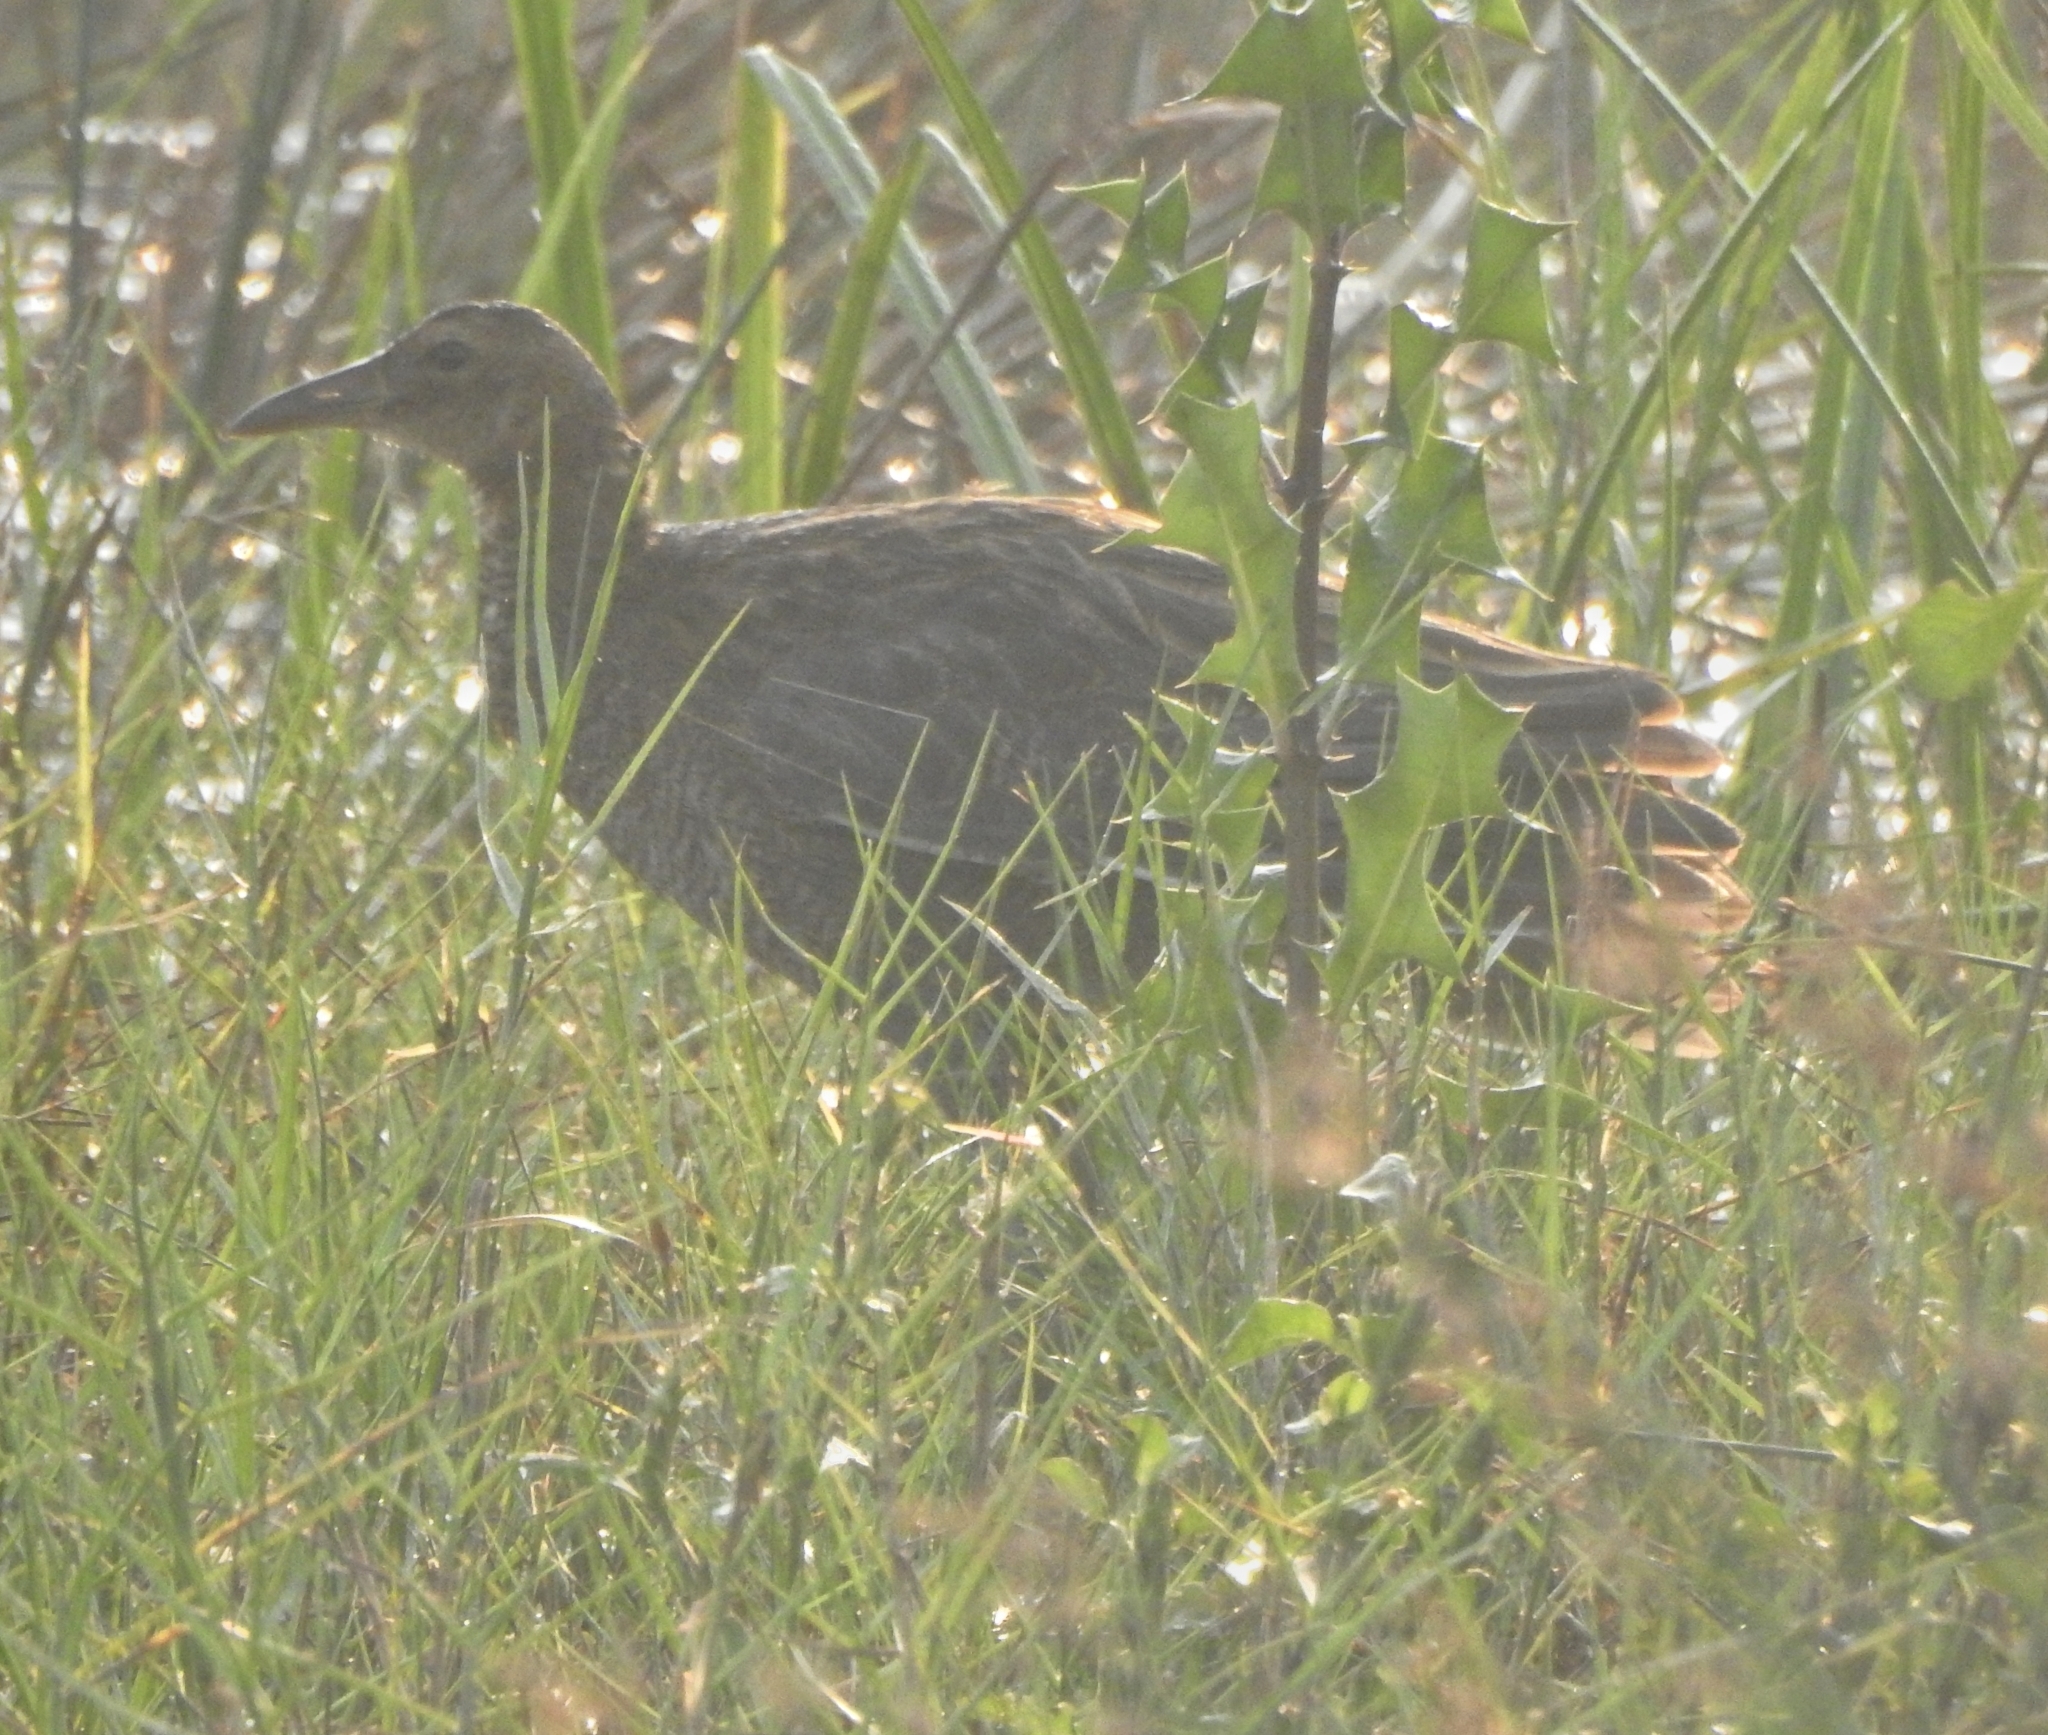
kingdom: Animalia
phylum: Chordata
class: Aves
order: Gruiformes
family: Rallidae
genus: Gallicrex
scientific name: Gallicrex cinerea
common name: Watercock
